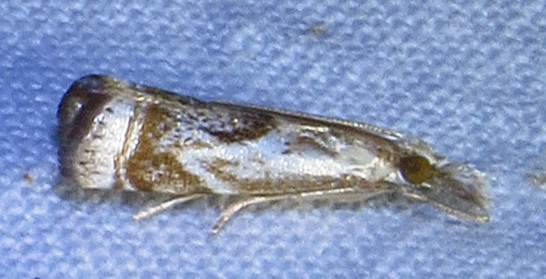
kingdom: Animalia
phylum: Arthropoda
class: Insecta
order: Lepidoptera
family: Crambidae
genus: Microcrambus
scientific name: Microcrambus elegans
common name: Elegant grass-veneer
